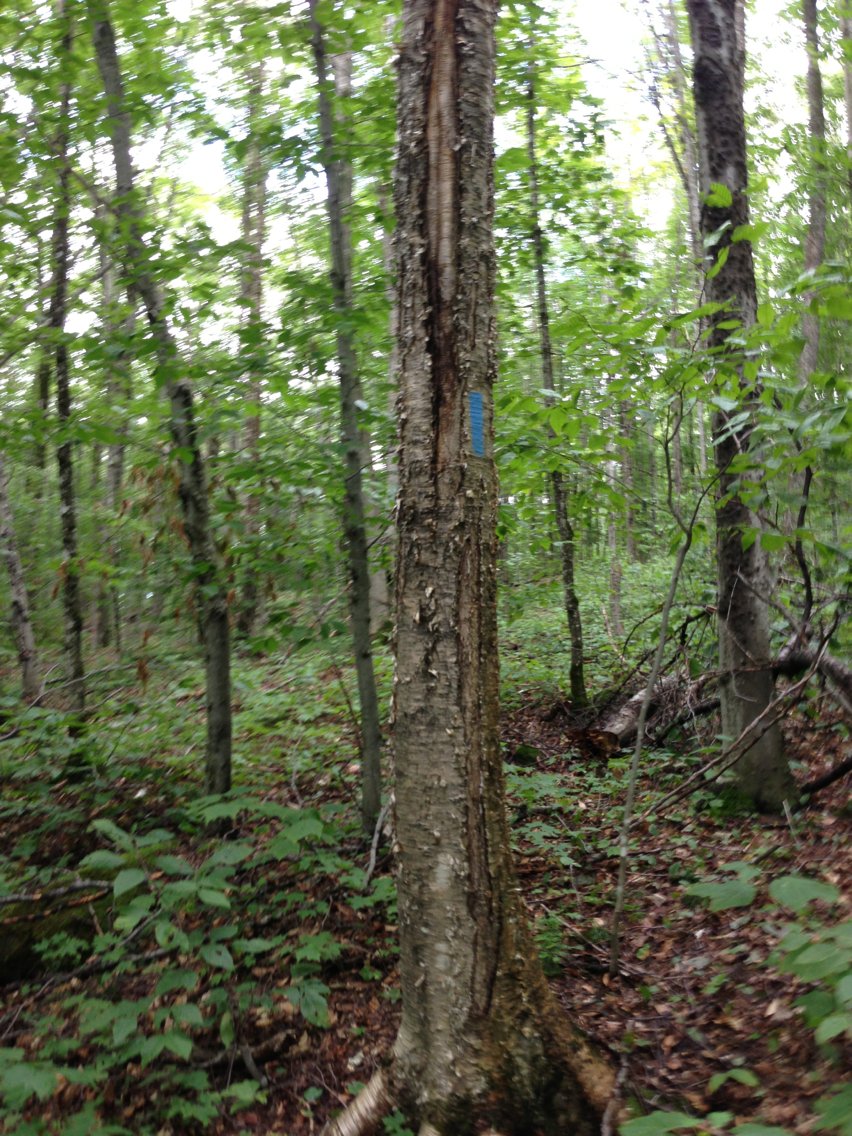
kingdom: Plantae
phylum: Tracheophyta
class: Magnoliopsida
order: Fagales
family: Betulaceae
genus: Betula
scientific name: Betula alleghaniensis
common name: Yellow birch
